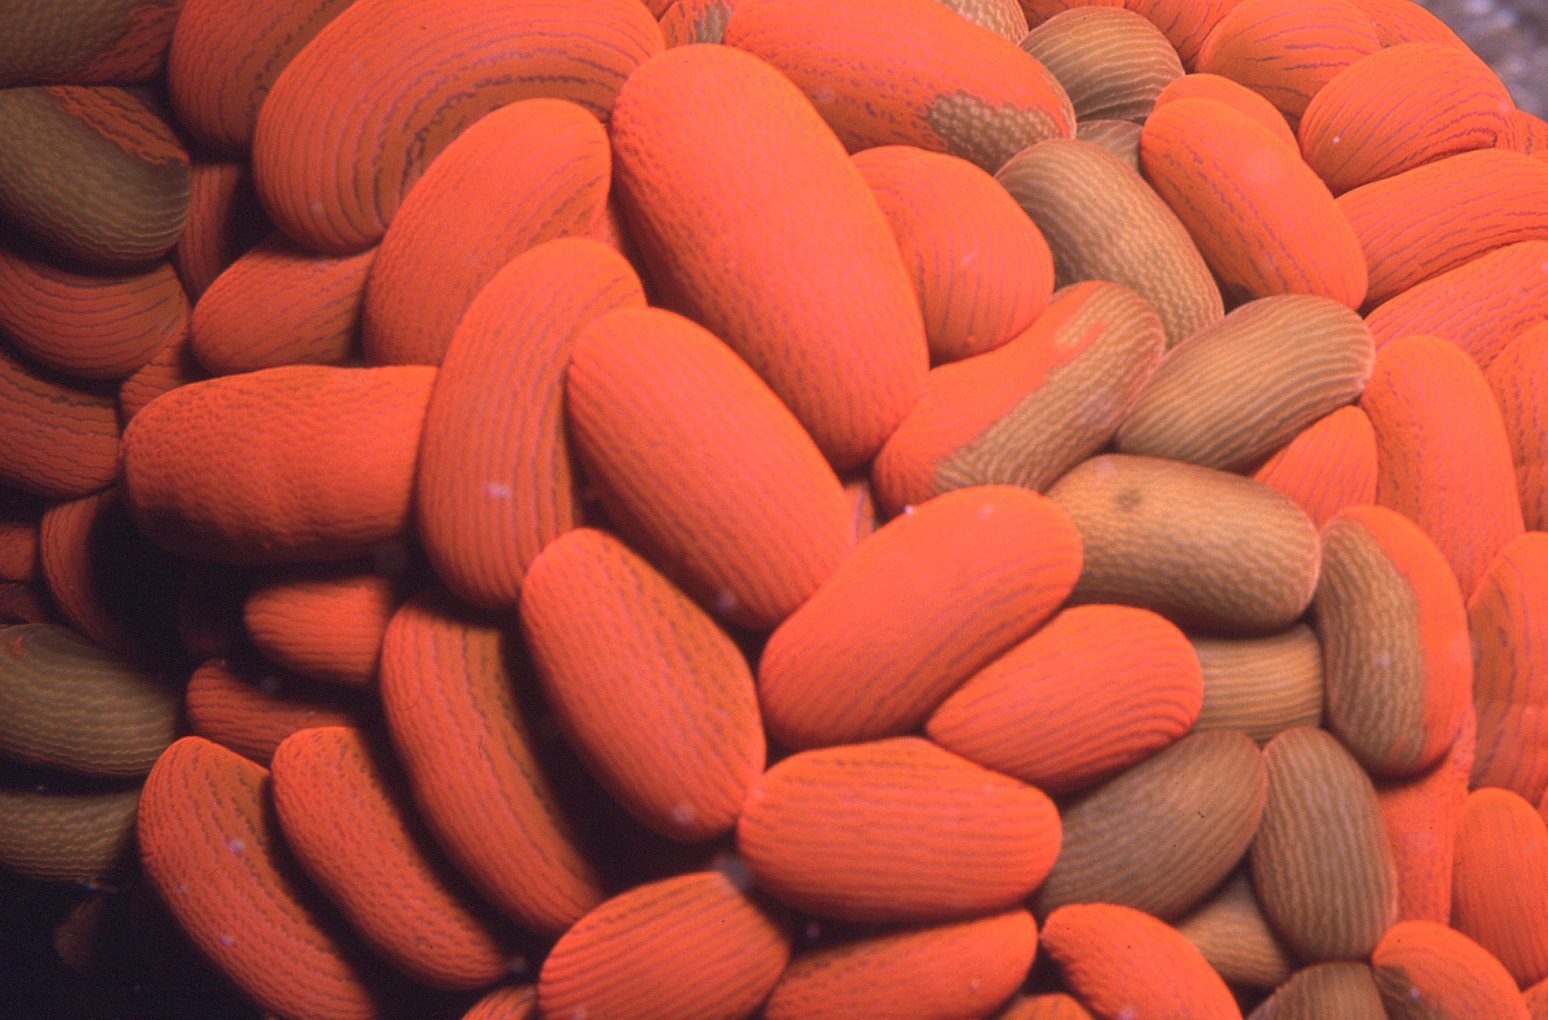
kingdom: Animalia
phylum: Cnidaria
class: Anthozoa
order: Actiniaria
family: Actiniidae
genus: Phlyctenactis
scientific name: Phlyctenactis tuberculosa
